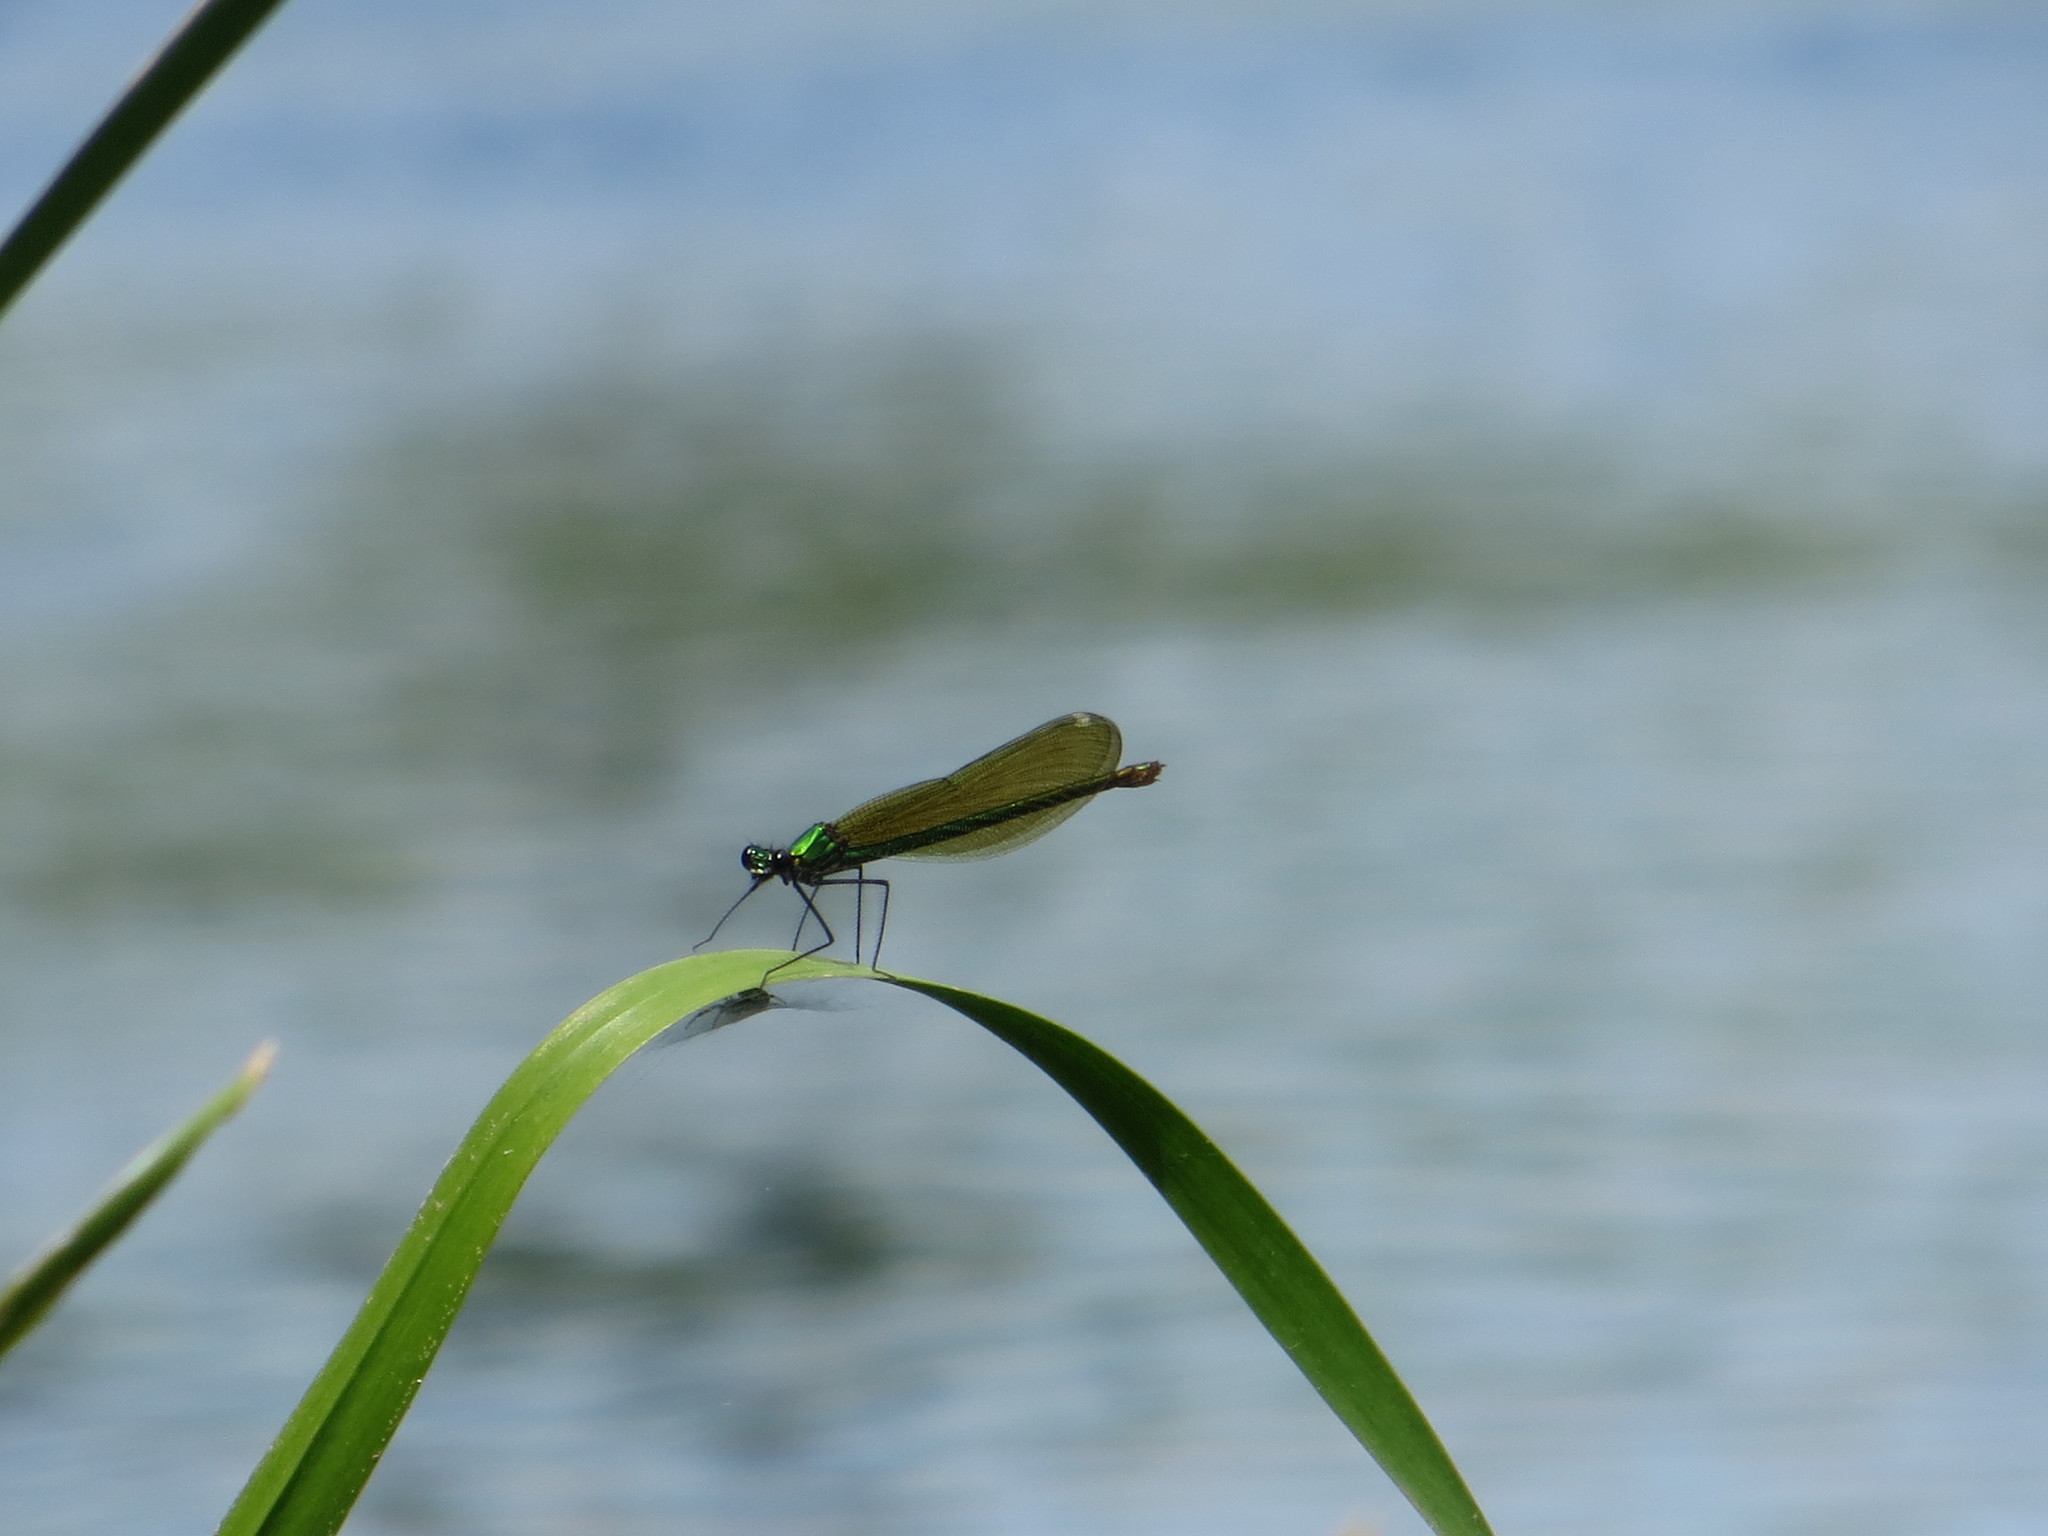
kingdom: Animalia
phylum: Arthropoda
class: Insecta
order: Odonata
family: Calopterygidae
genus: Calopteryx
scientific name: Calopteryx splendens
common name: Banded demoiselle
